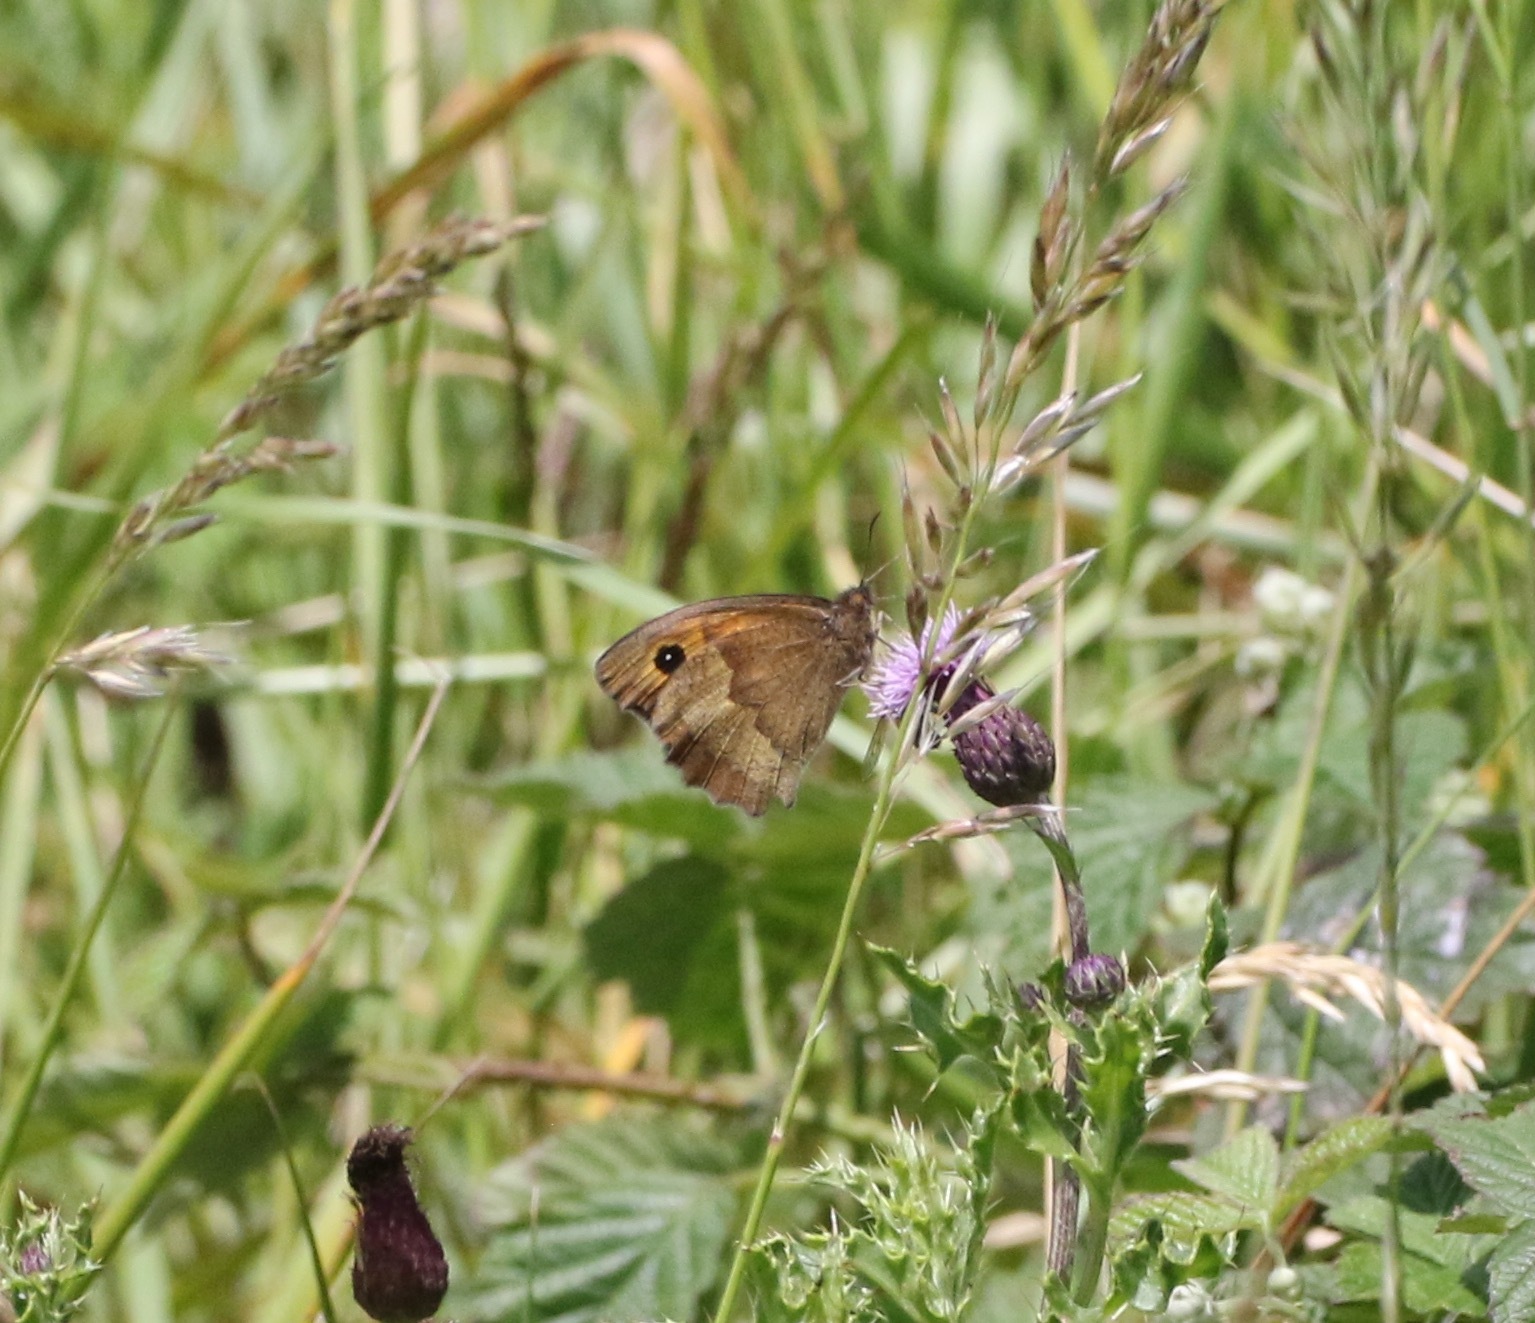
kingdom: Animalia
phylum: Arthropoda
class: Insecta
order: Lepidoptera
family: Nymphalidae
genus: Maniola
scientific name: Maniola jurtina
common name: Meadow brown
